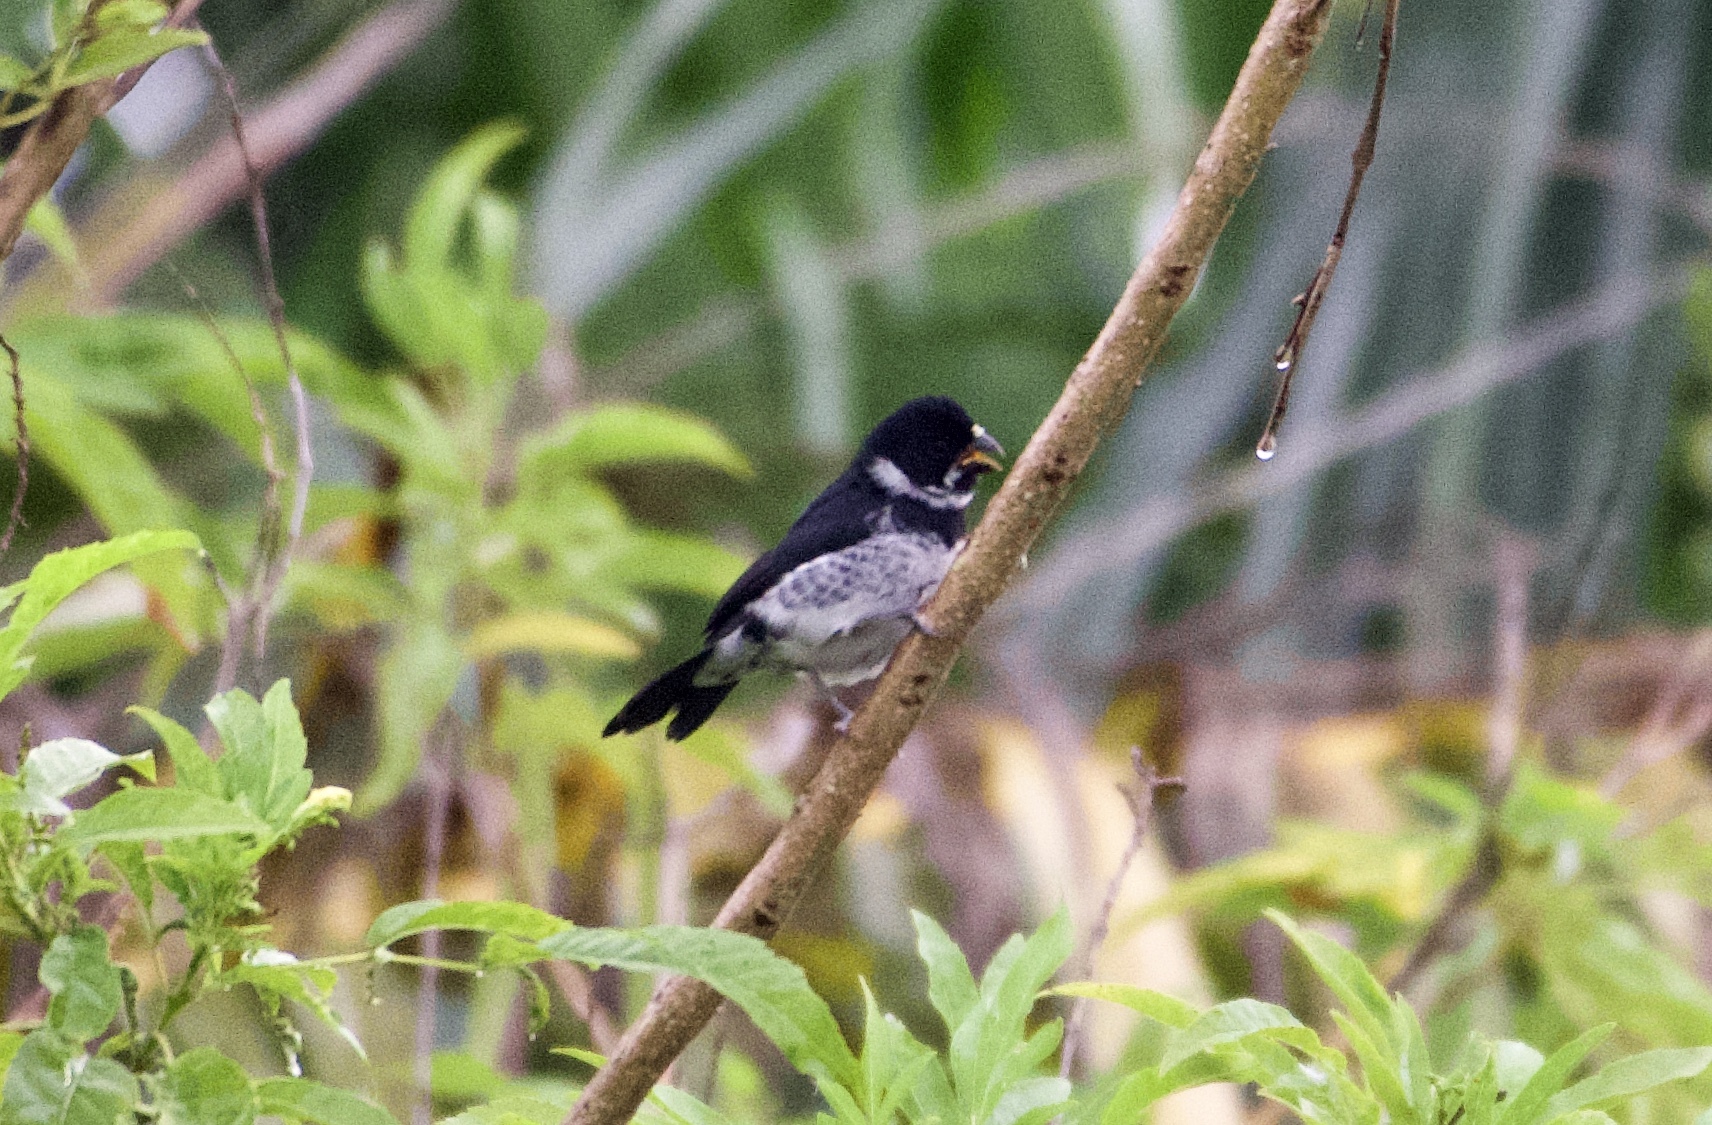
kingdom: Animalia
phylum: Chordata
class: Aves
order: Passeriformes
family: Thraupidae
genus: Sporophila
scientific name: Sporophila corvina
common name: Variable seedeater
